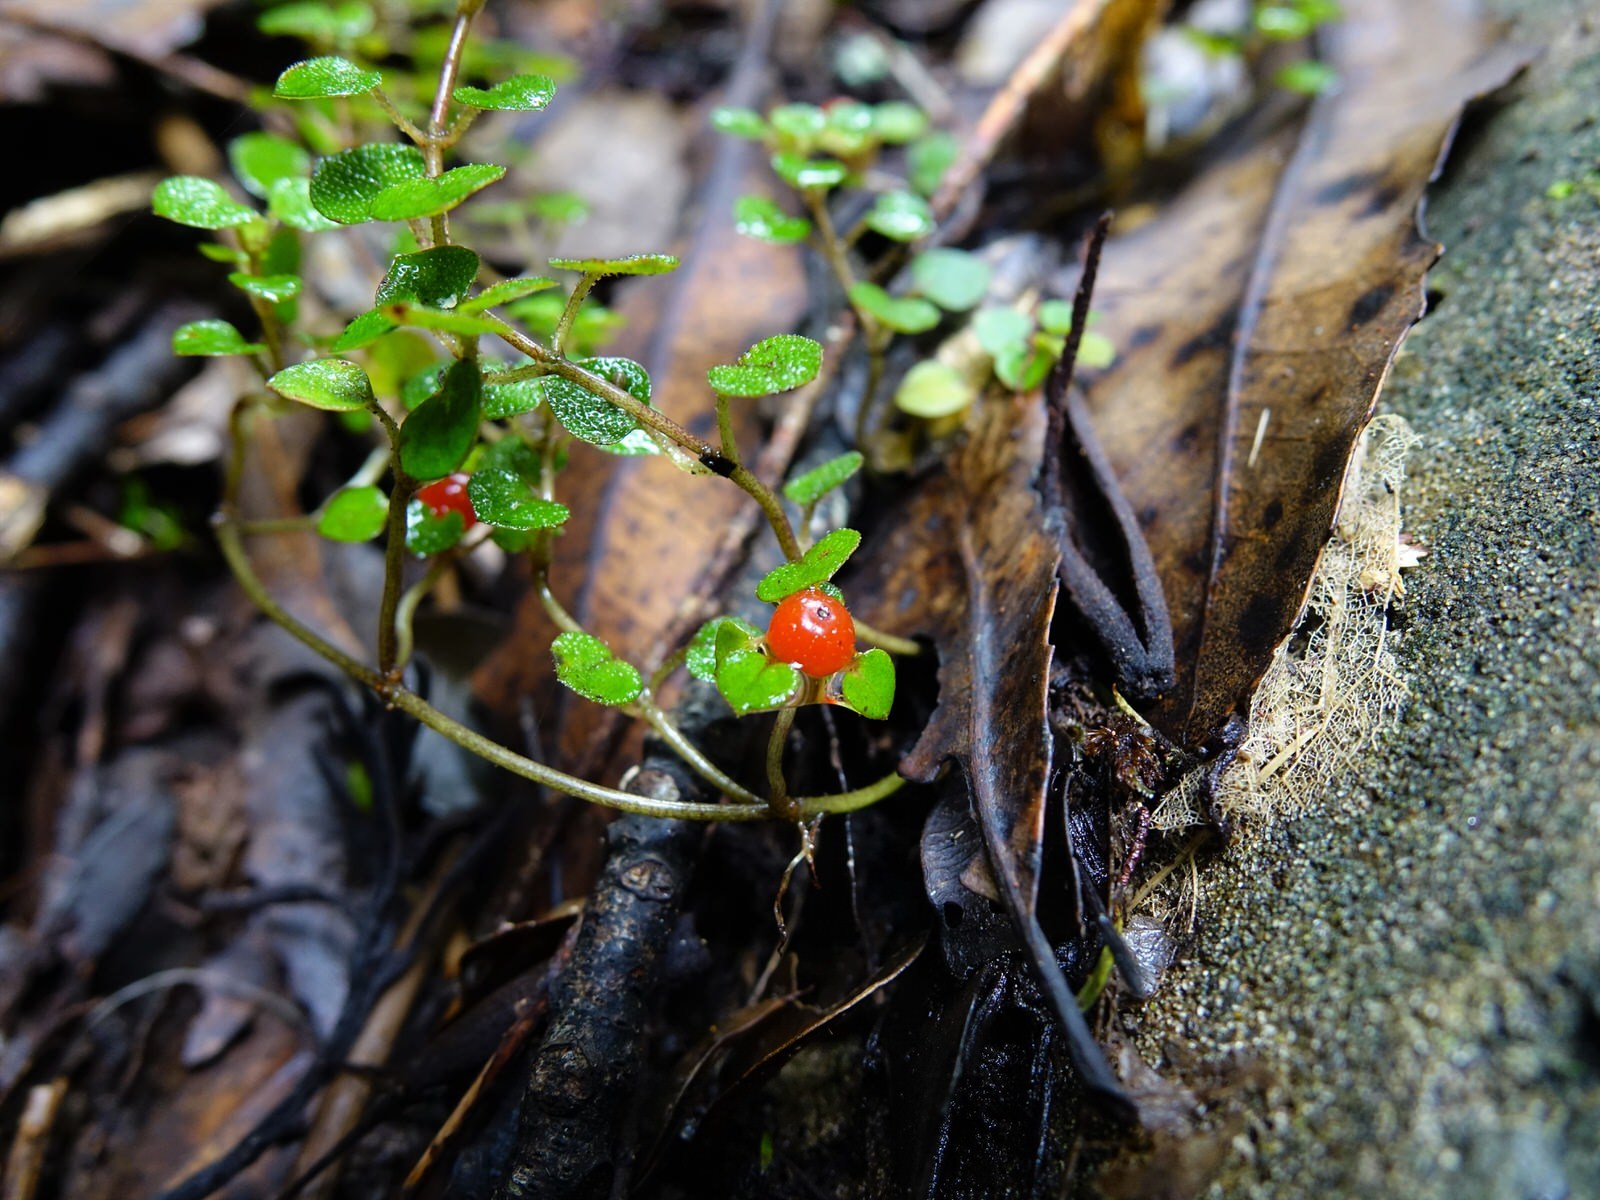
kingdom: Plantae
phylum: Tracheophyta
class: Magnoliopsida
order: Gentianales
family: Rubiaceae
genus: Nertera
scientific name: Nertera dichondrifolia
